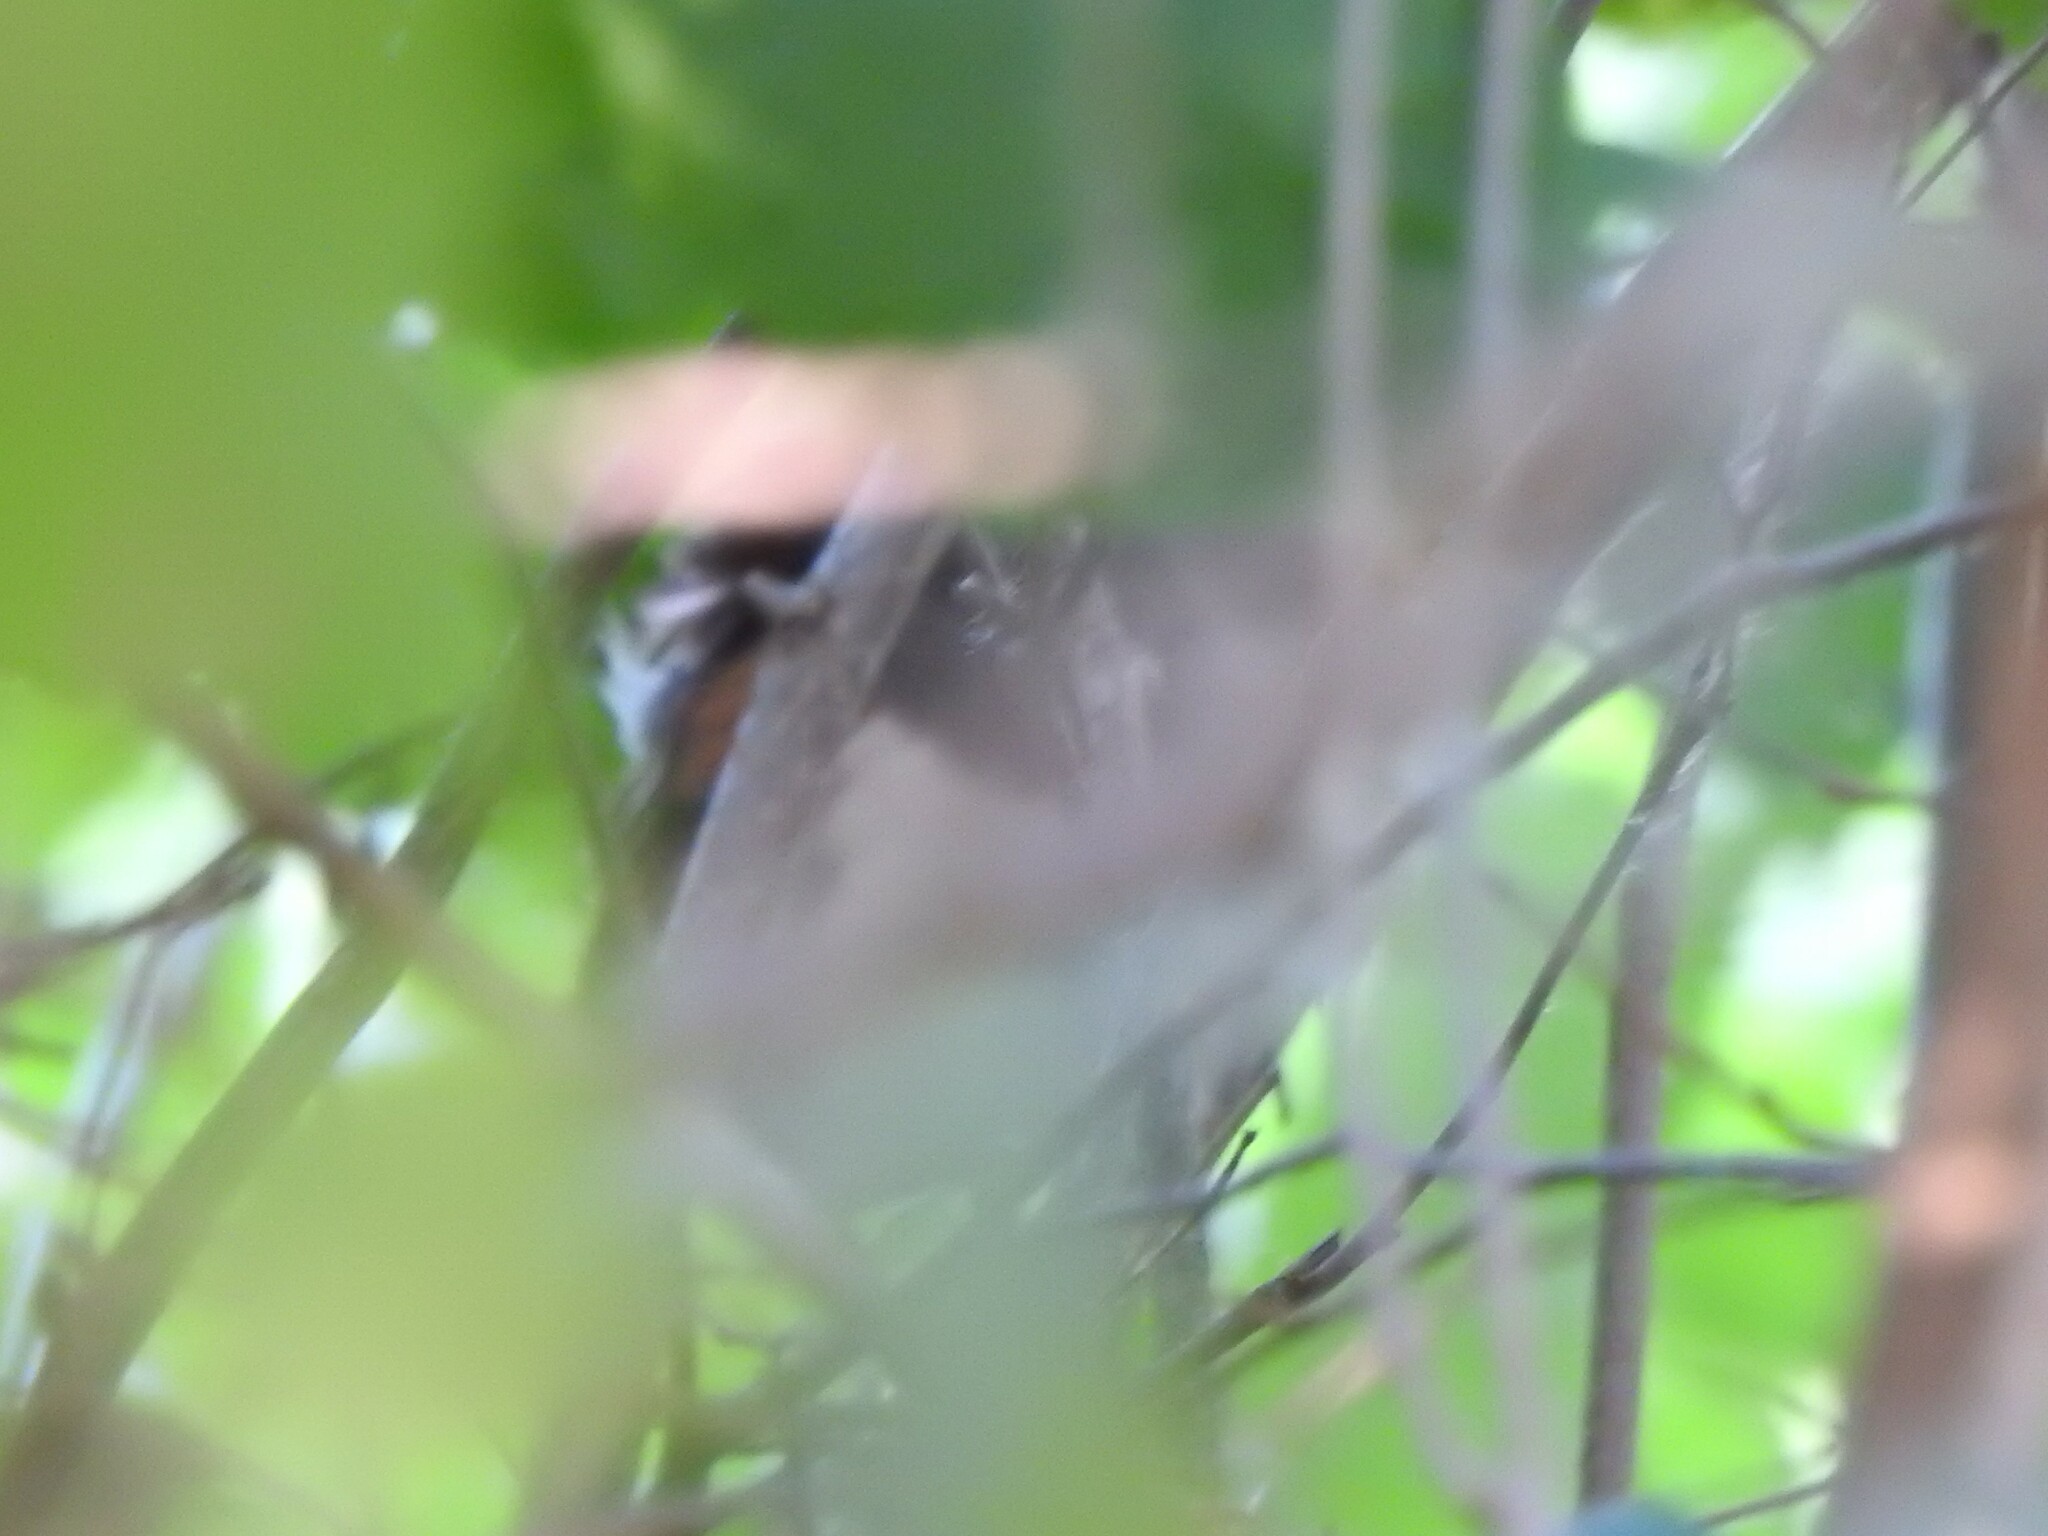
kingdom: Animalia
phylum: Chordata
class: Aves
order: Passeriformes
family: Passerellidae
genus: Pipilo
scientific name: Pipilo erythrophthalmus
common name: Eastern towhee
